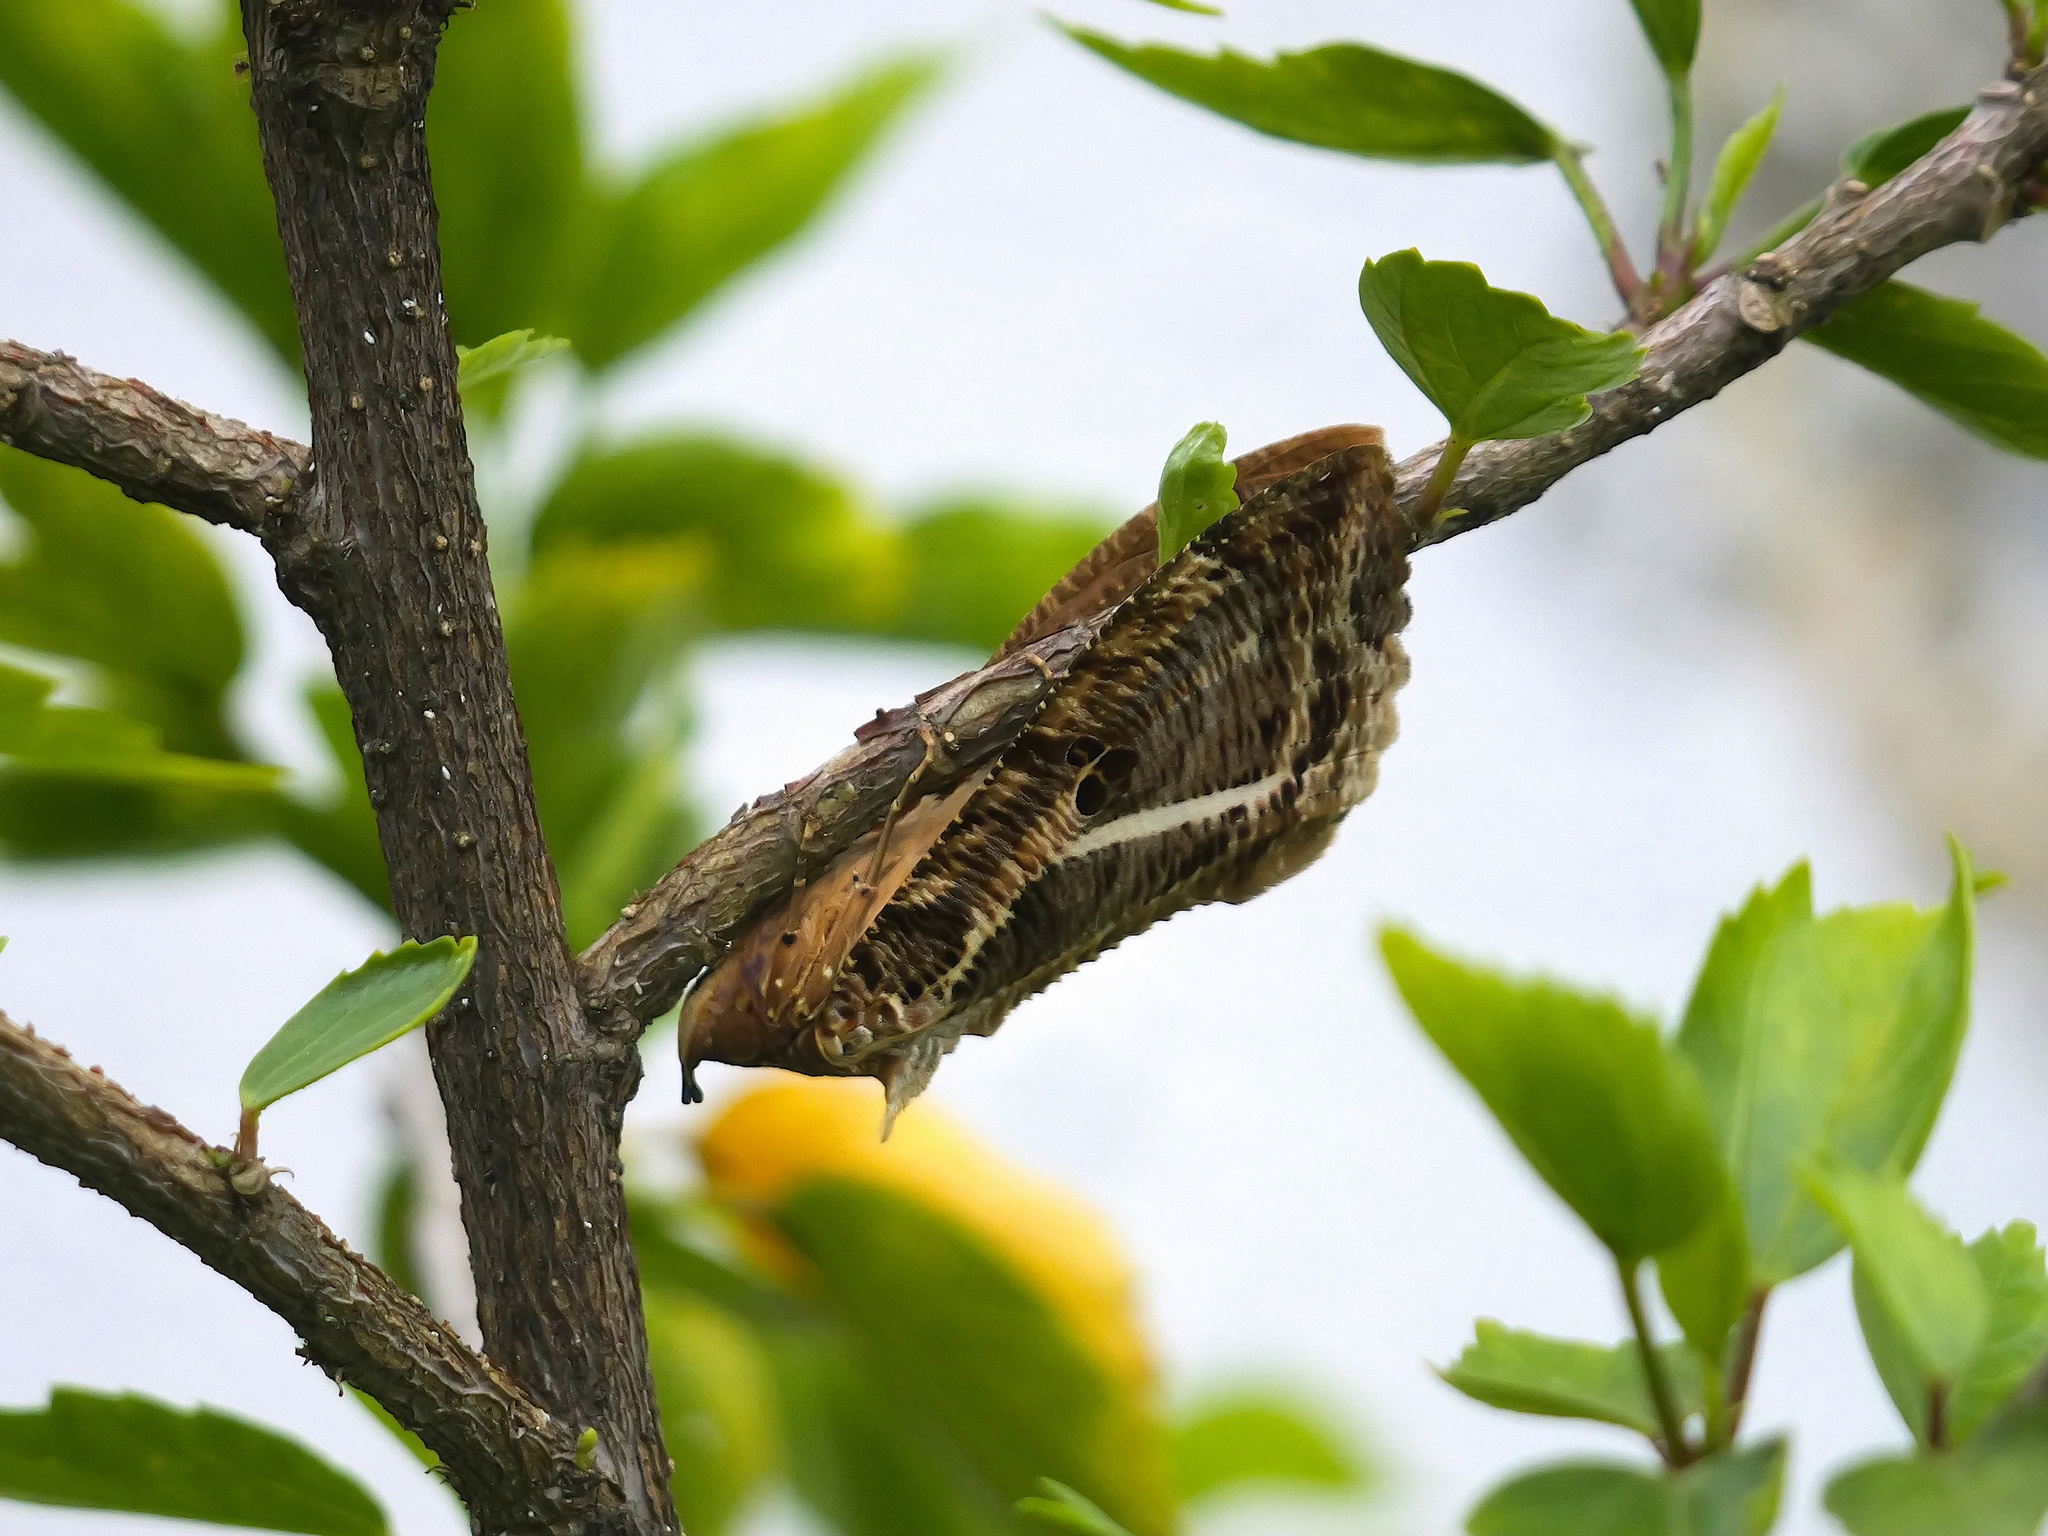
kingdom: Animalia
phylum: Arthropoda
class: Insecta
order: Lepidoptera
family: Erebidae
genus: Eudocima
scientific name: Eudocima materna
